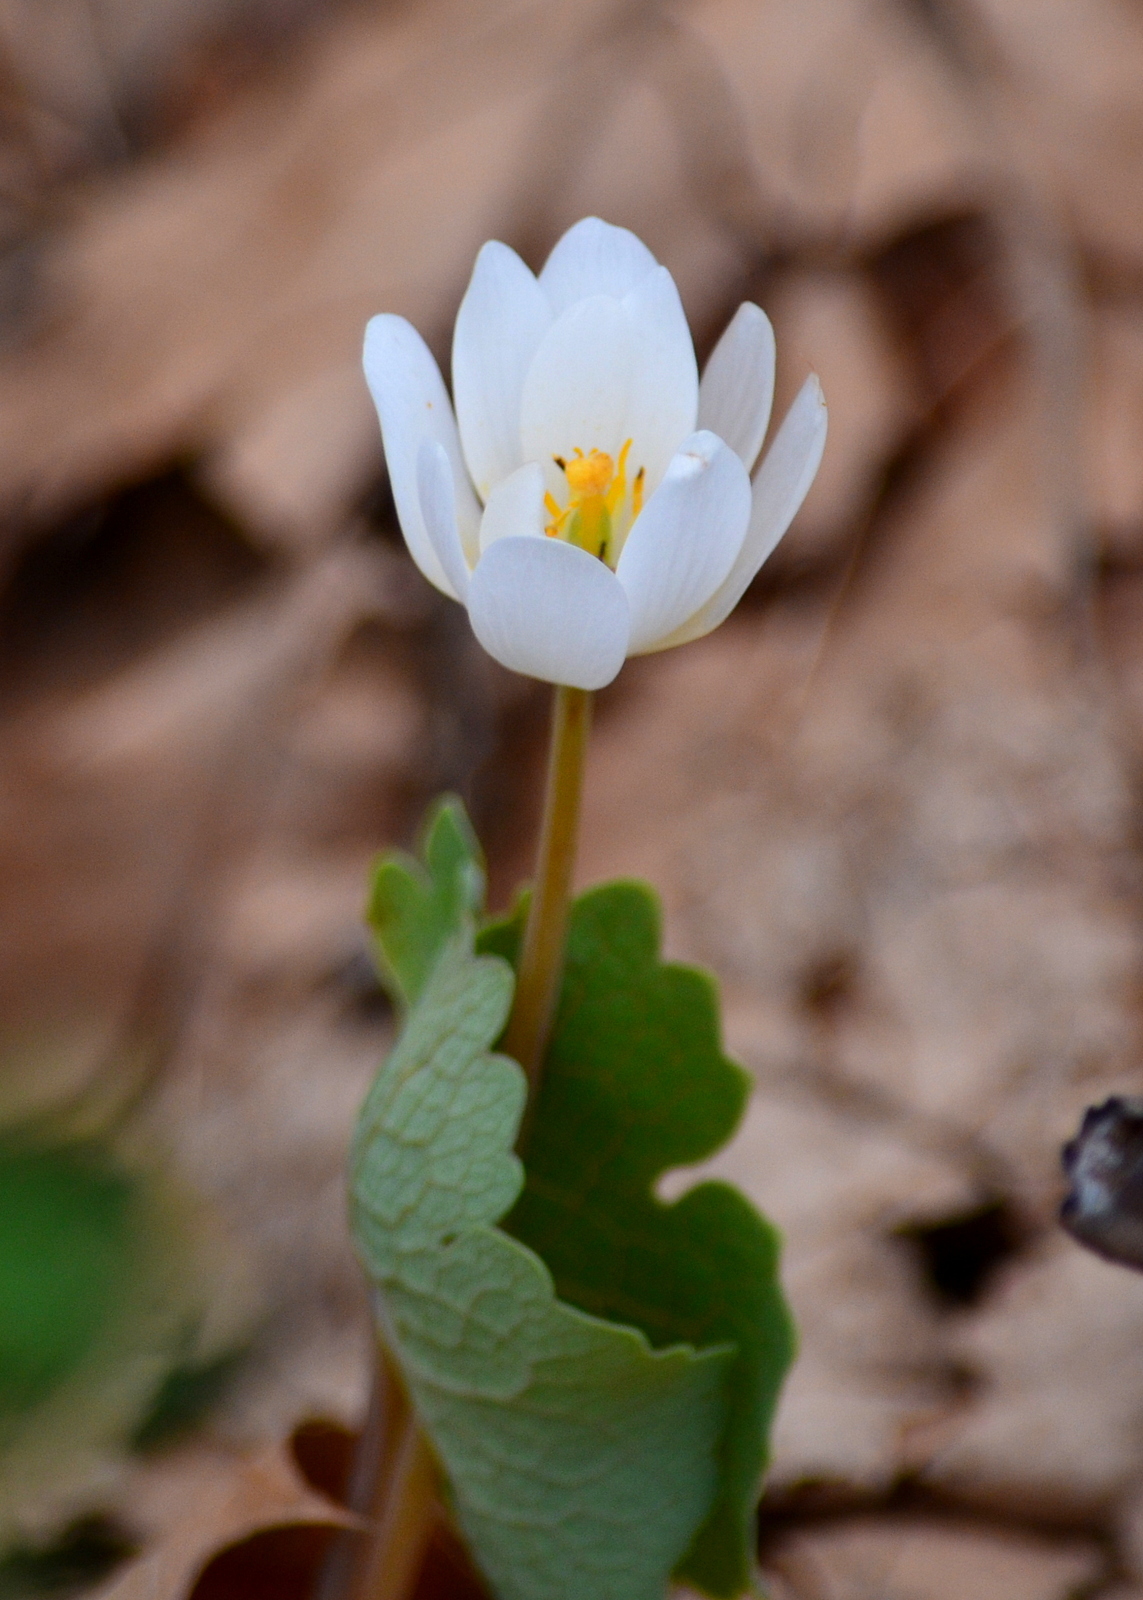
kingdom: Plantae
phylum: Tracheophyta
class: Magnoliopsida
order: Ranunculales
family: Papaveraceae
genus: Sanguinaria
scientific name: Sanguinaria canadensis
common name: Bloodroot
